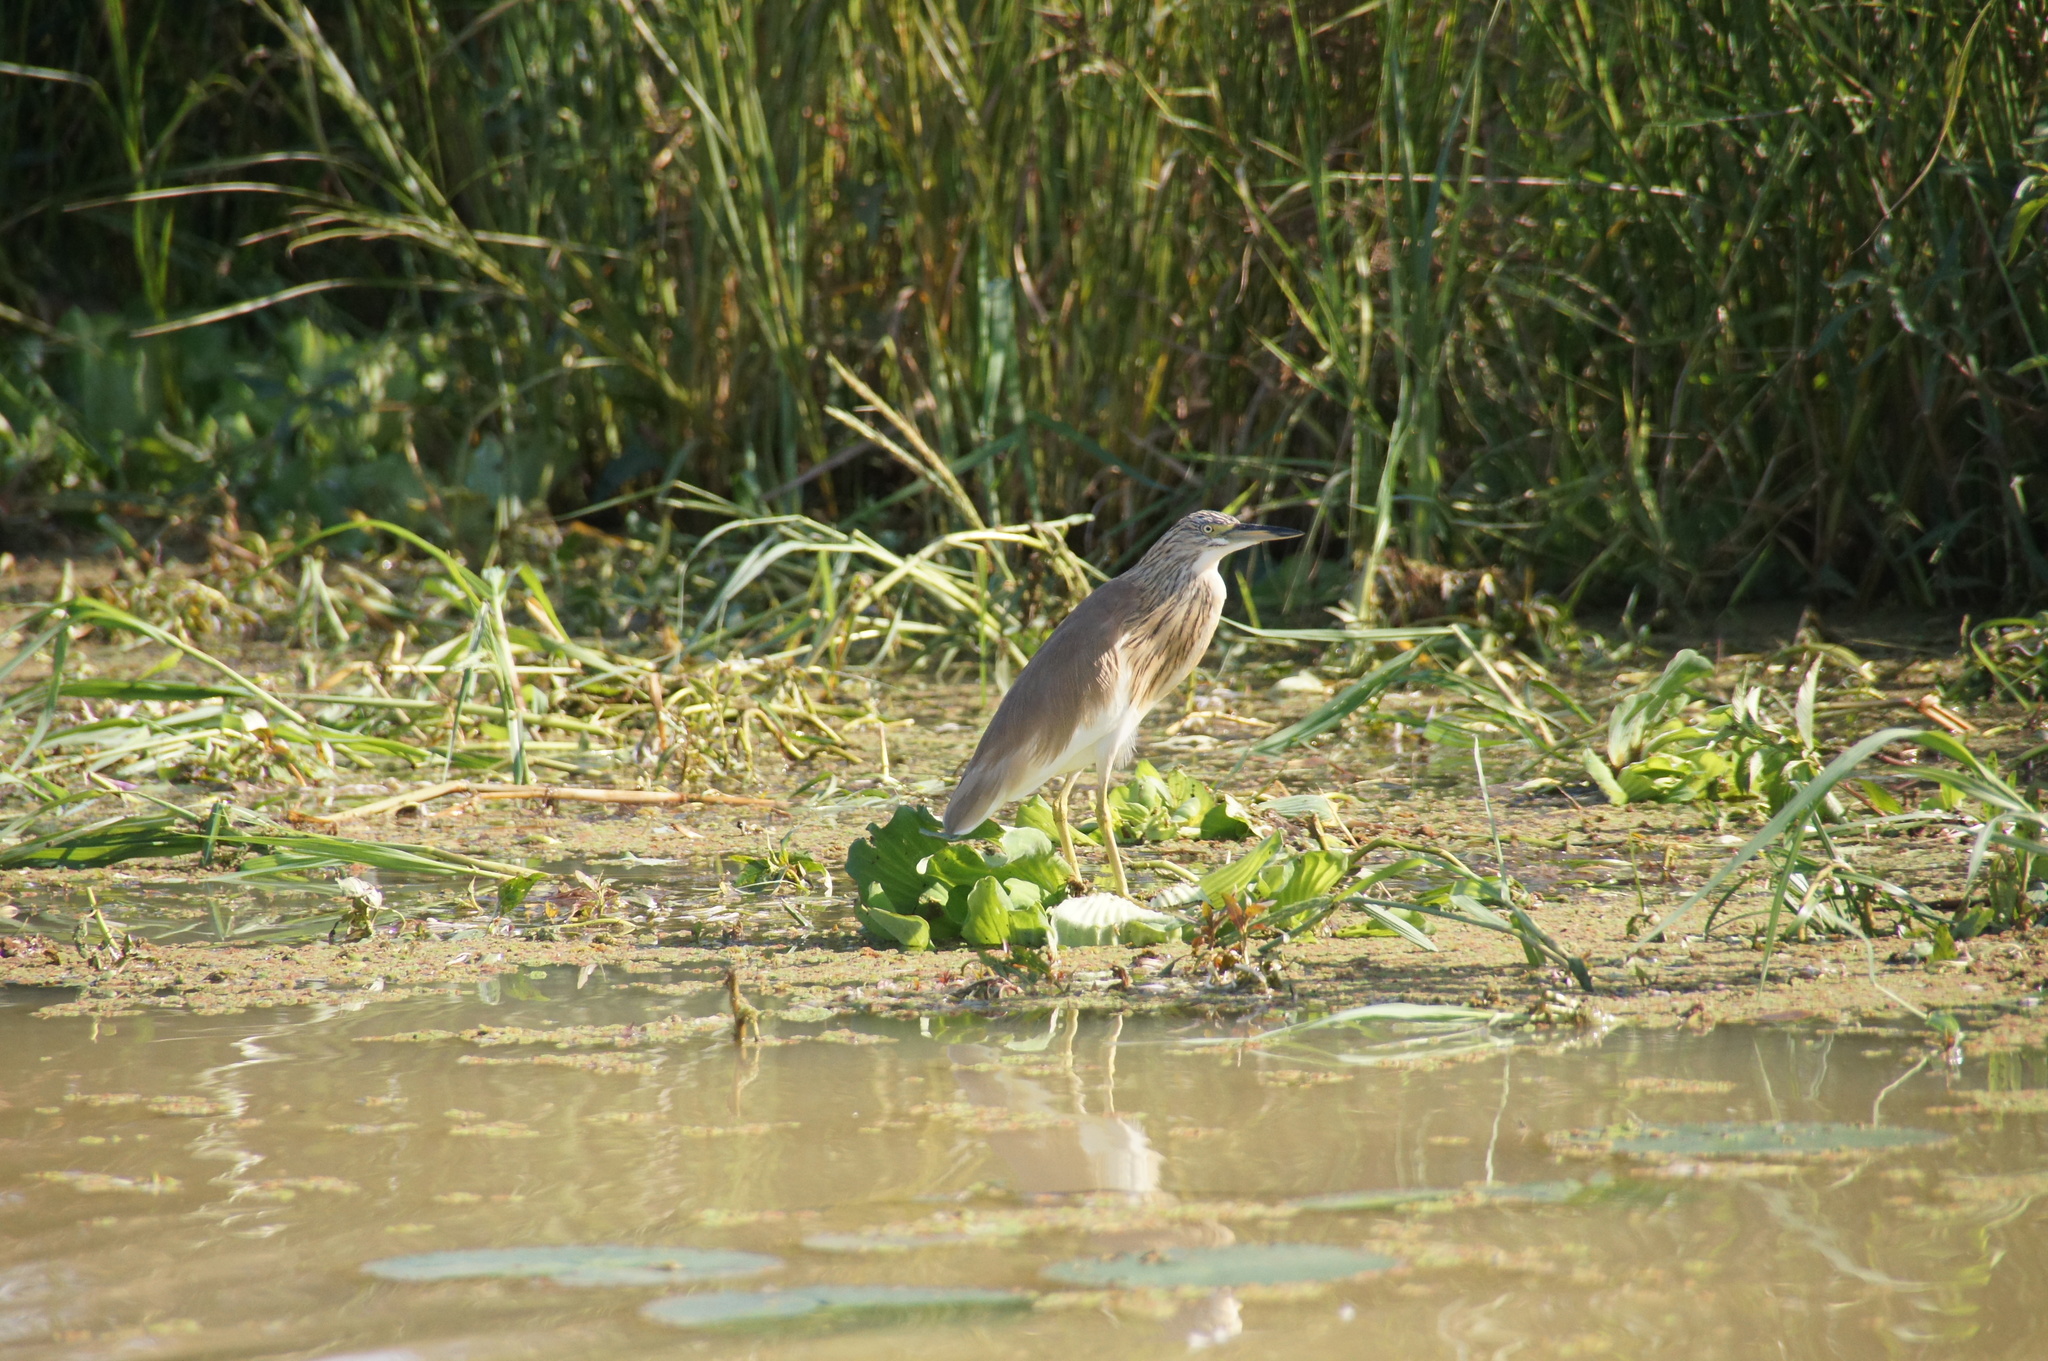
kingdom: Animalia
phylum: Chordata
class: Aves
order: Pelecaniformes
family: Ardeidae
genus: Ardeola
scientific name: Ardeola ralloides
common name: Squacco heron
